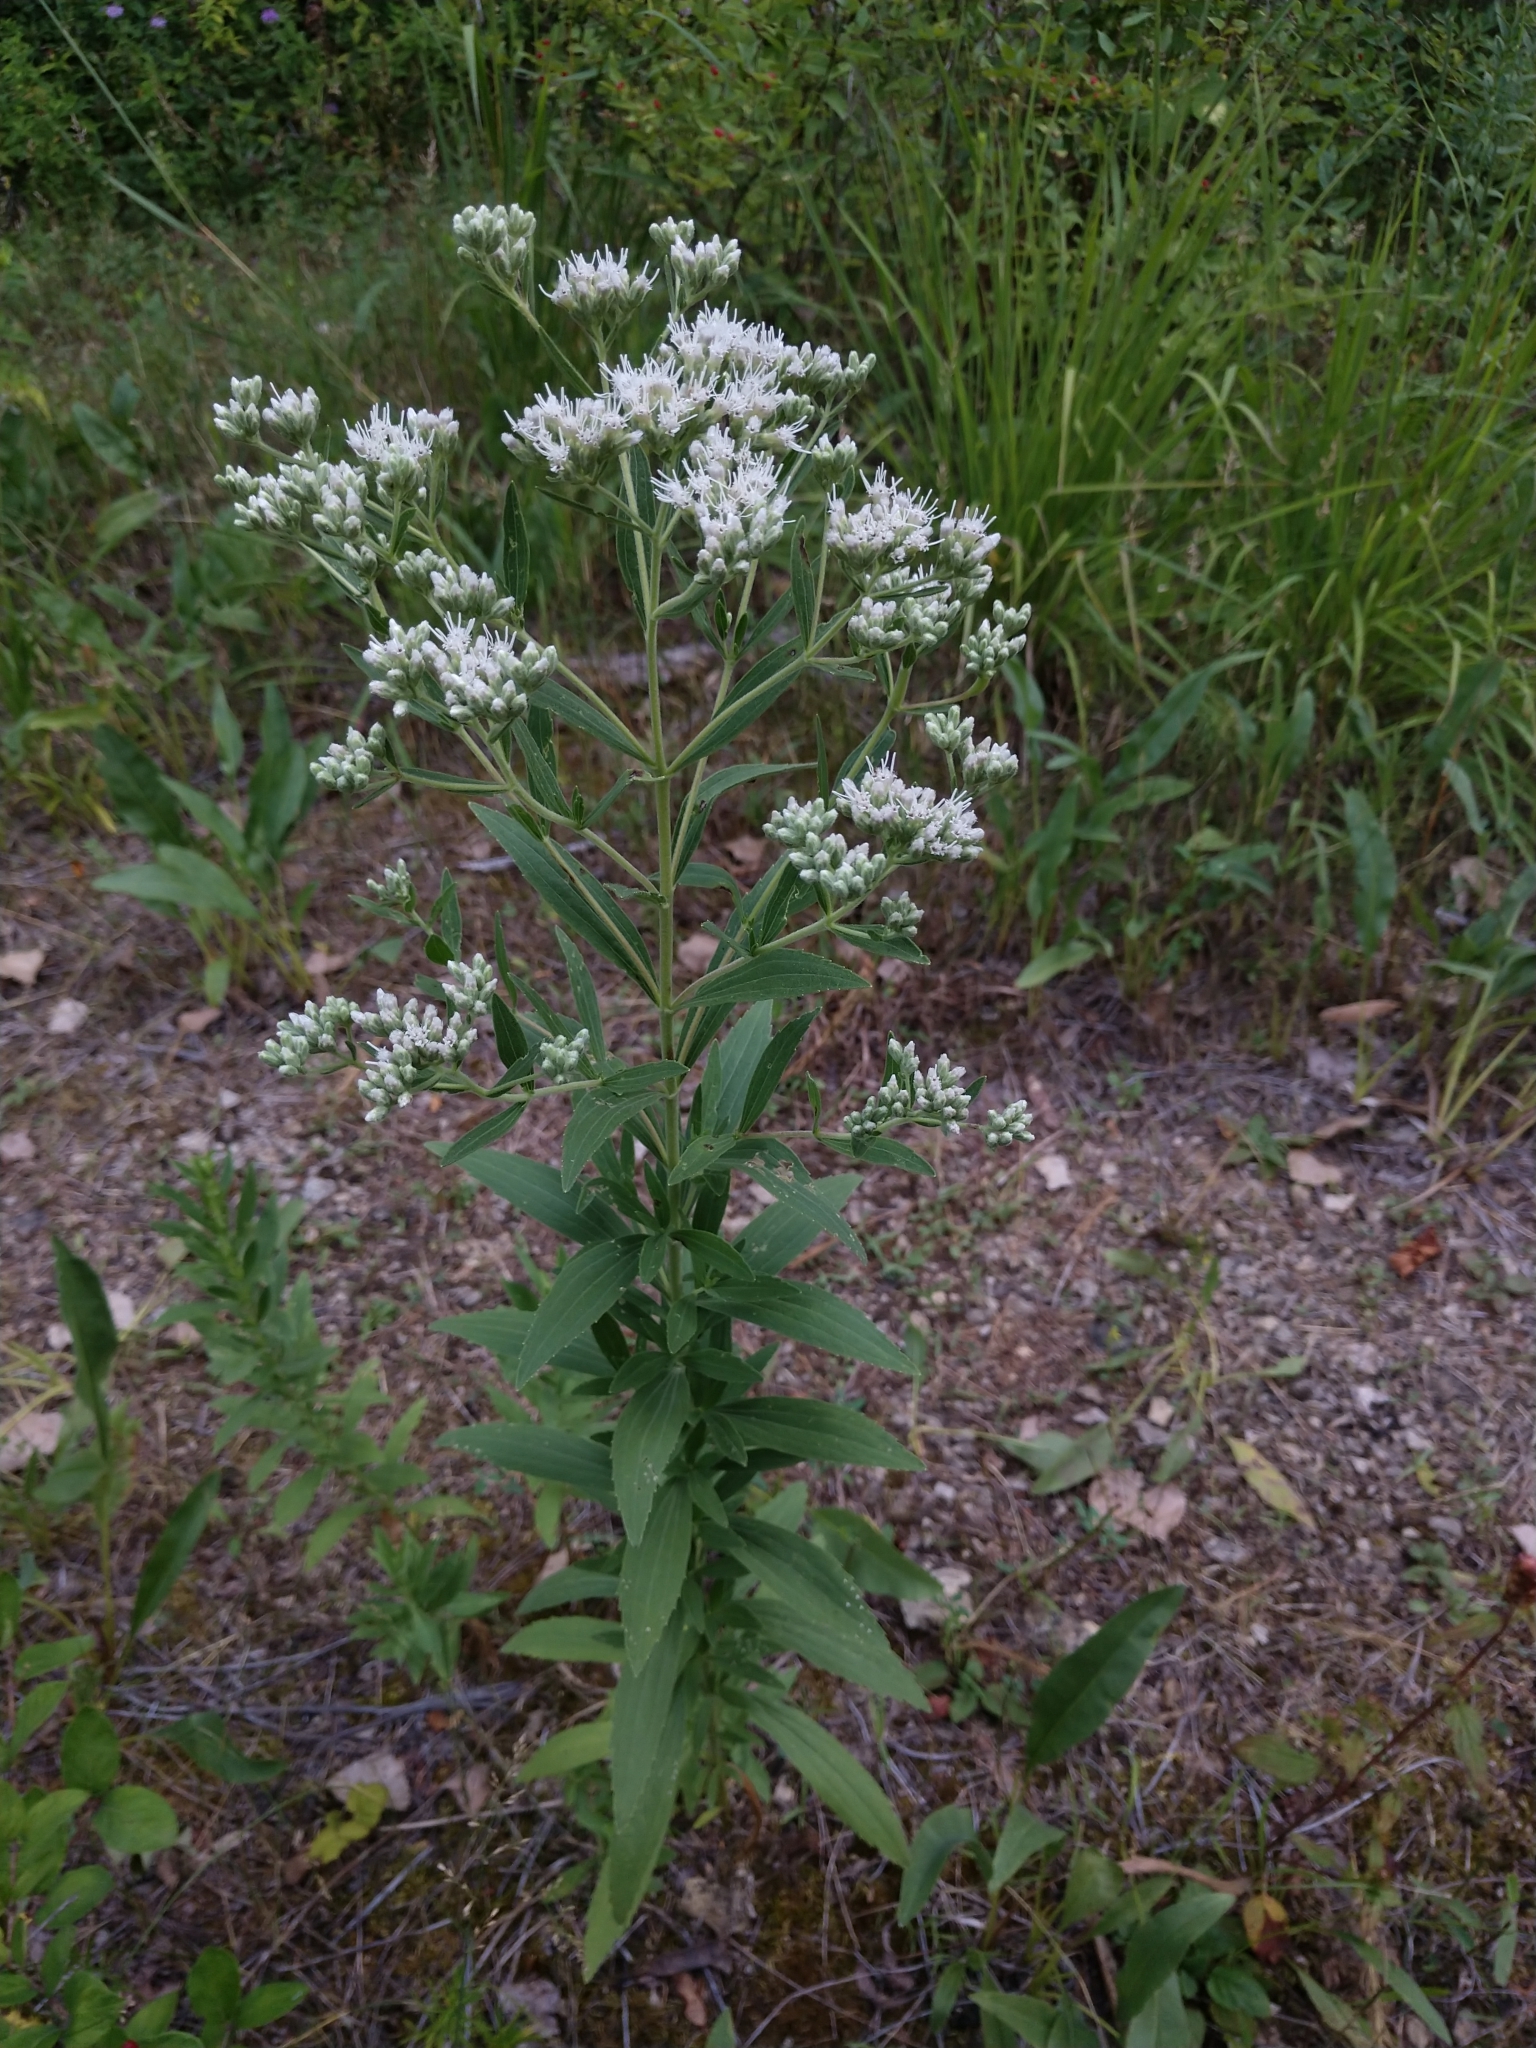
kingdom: Plantae
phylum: Tracheophyta
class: Magnoliopsida
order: Asterales
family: Asteraceae
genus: Eupatorium
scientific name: Eupatorium altissimum
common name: Tall thoroughwort
